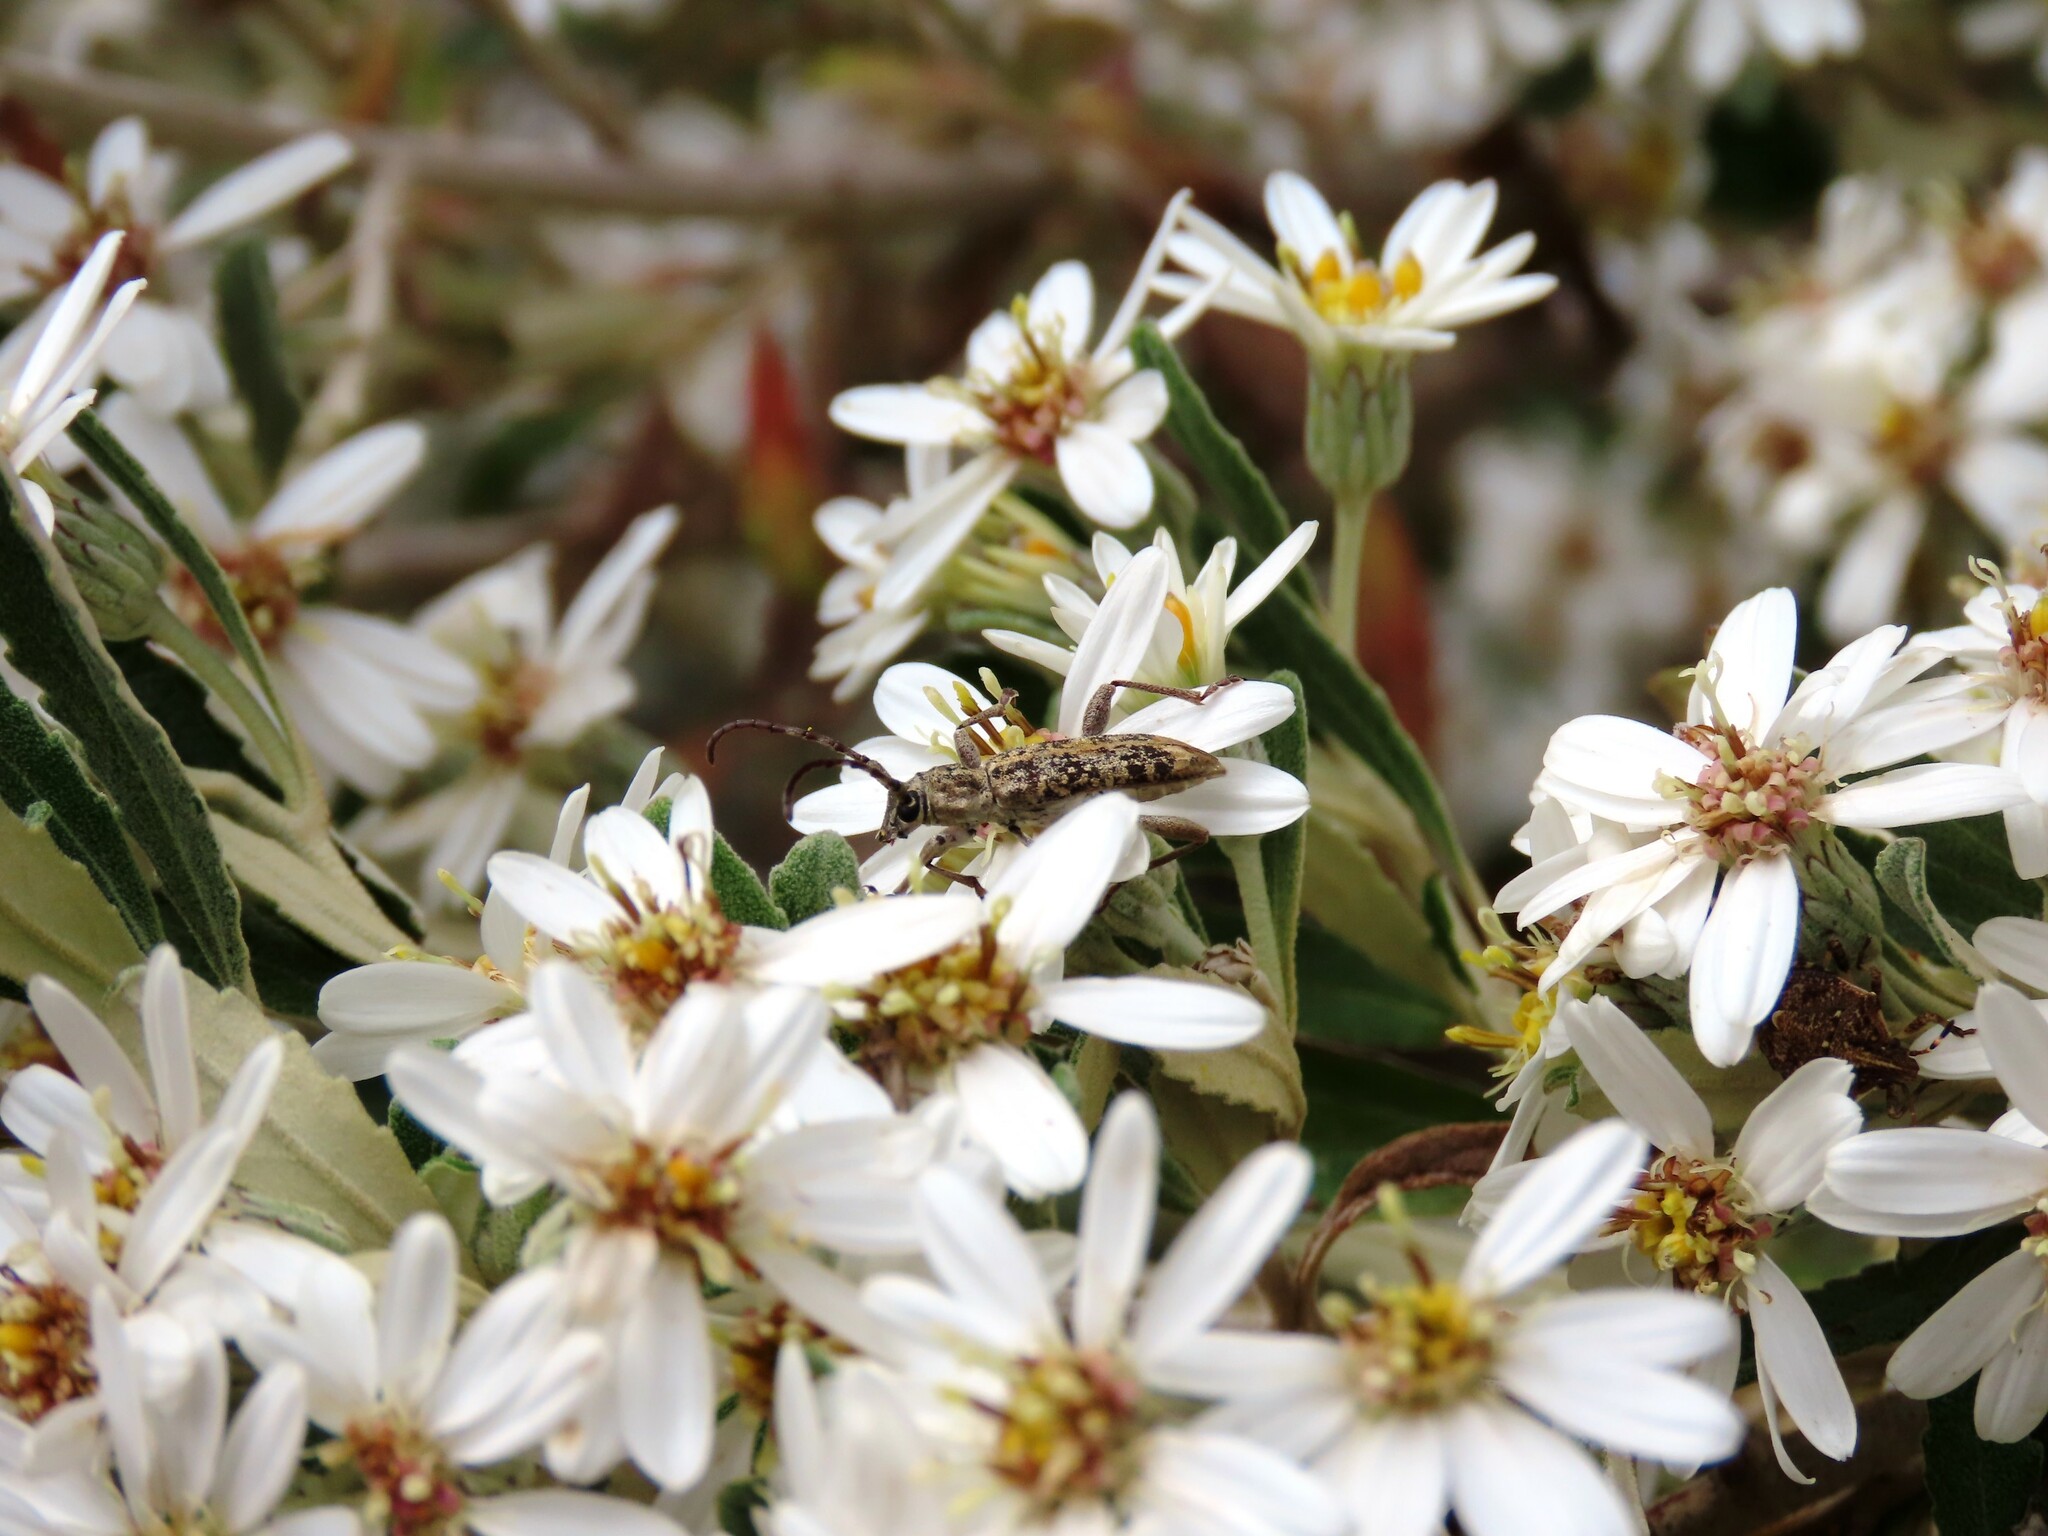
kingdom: Animalia
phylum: Arthropoda
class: Insecta
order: Coleoptera
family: Cerambycidae
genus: Pempsamacra
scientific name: Pempsamacra dispersa
